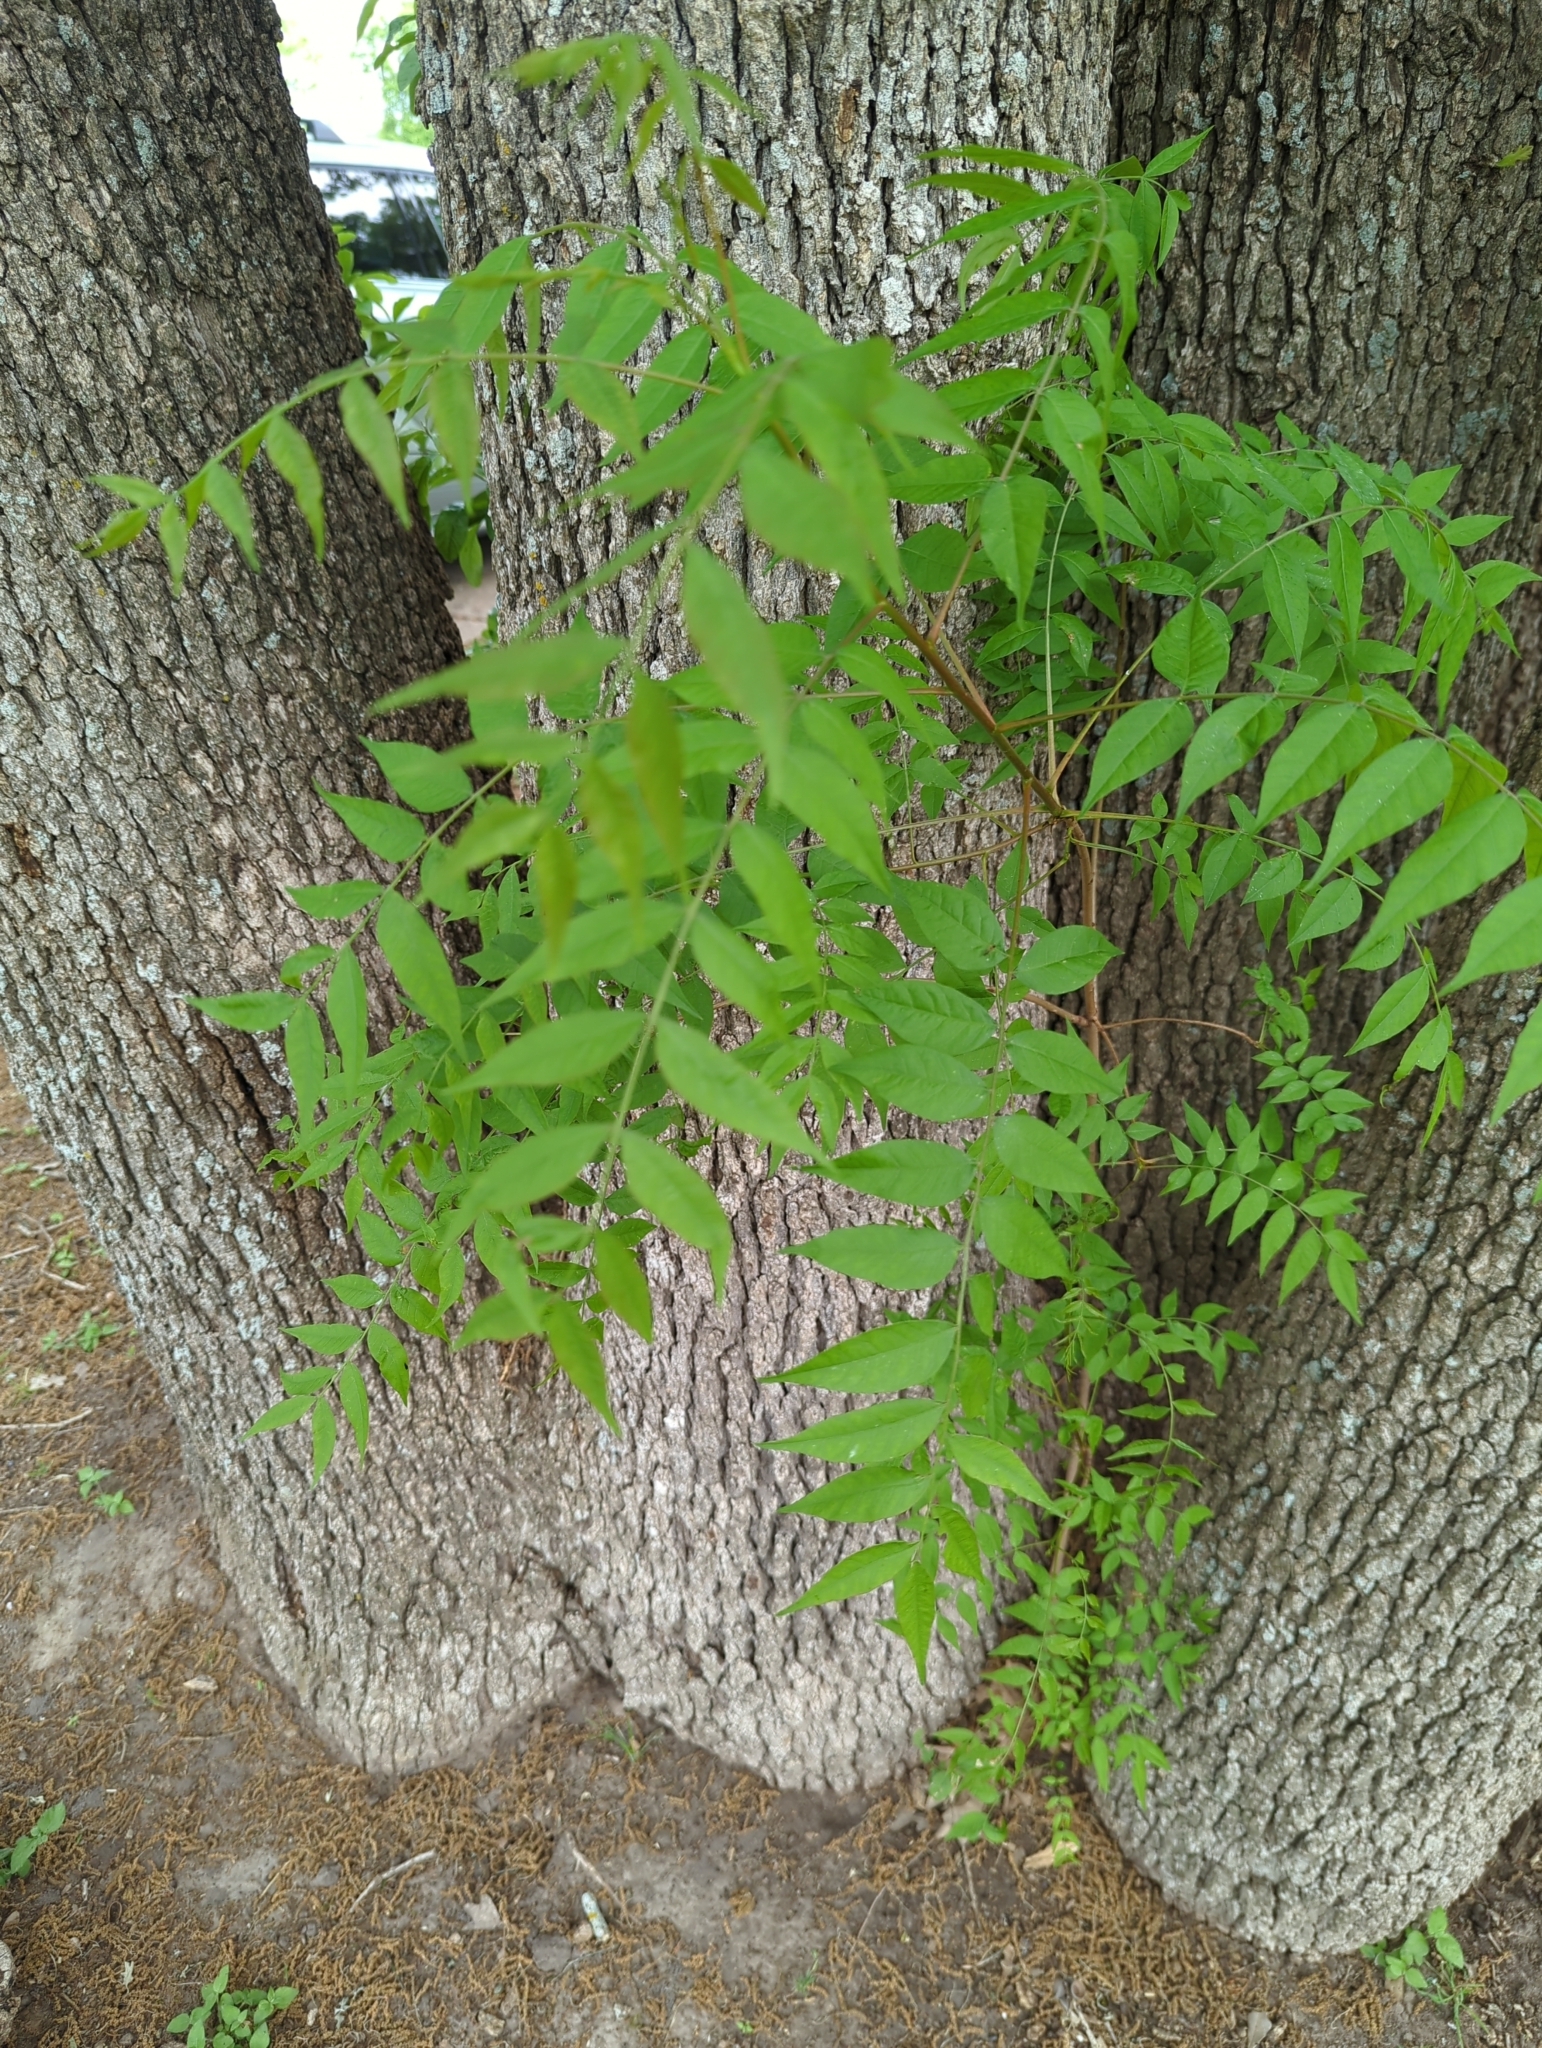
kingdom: Plantae
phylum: Tracheophyta
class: Magnoliopsida
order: Sapindales
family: Anacardiaceae
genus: Pistacia
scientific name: Pistacia chinensis
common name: Chinese pistache
